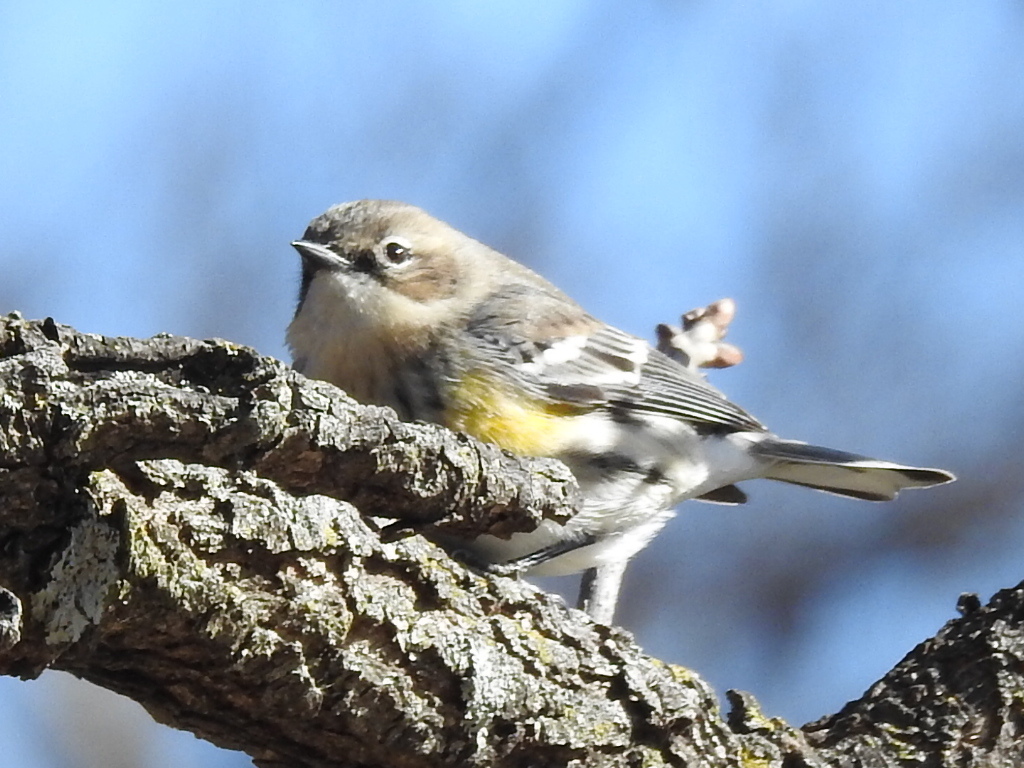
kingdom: Animalia
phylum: Chordata
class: Aves
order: Passeriformes
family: Parulidae
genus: Setophaga
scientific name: Setophaga coronata
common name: Myrtle warbler
